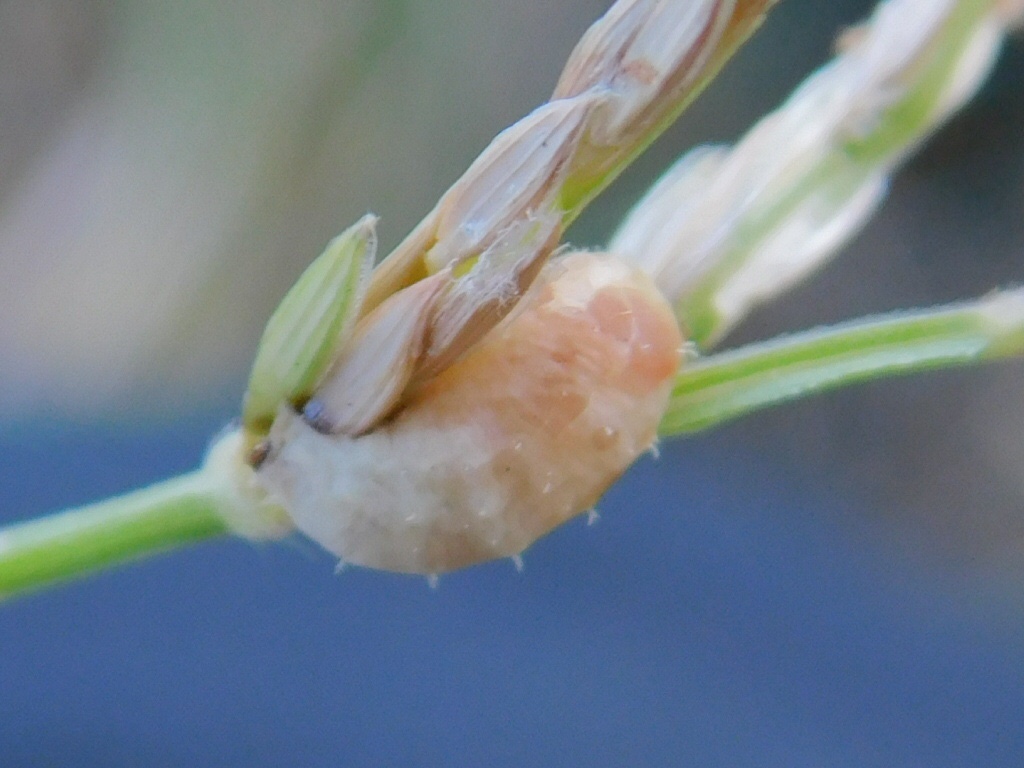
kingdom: Animalia
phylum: Arthropoda
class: Insecta
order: Diptera
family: Syrphidae
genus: Dioprosopa
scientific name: Dioprosopa clavatus
